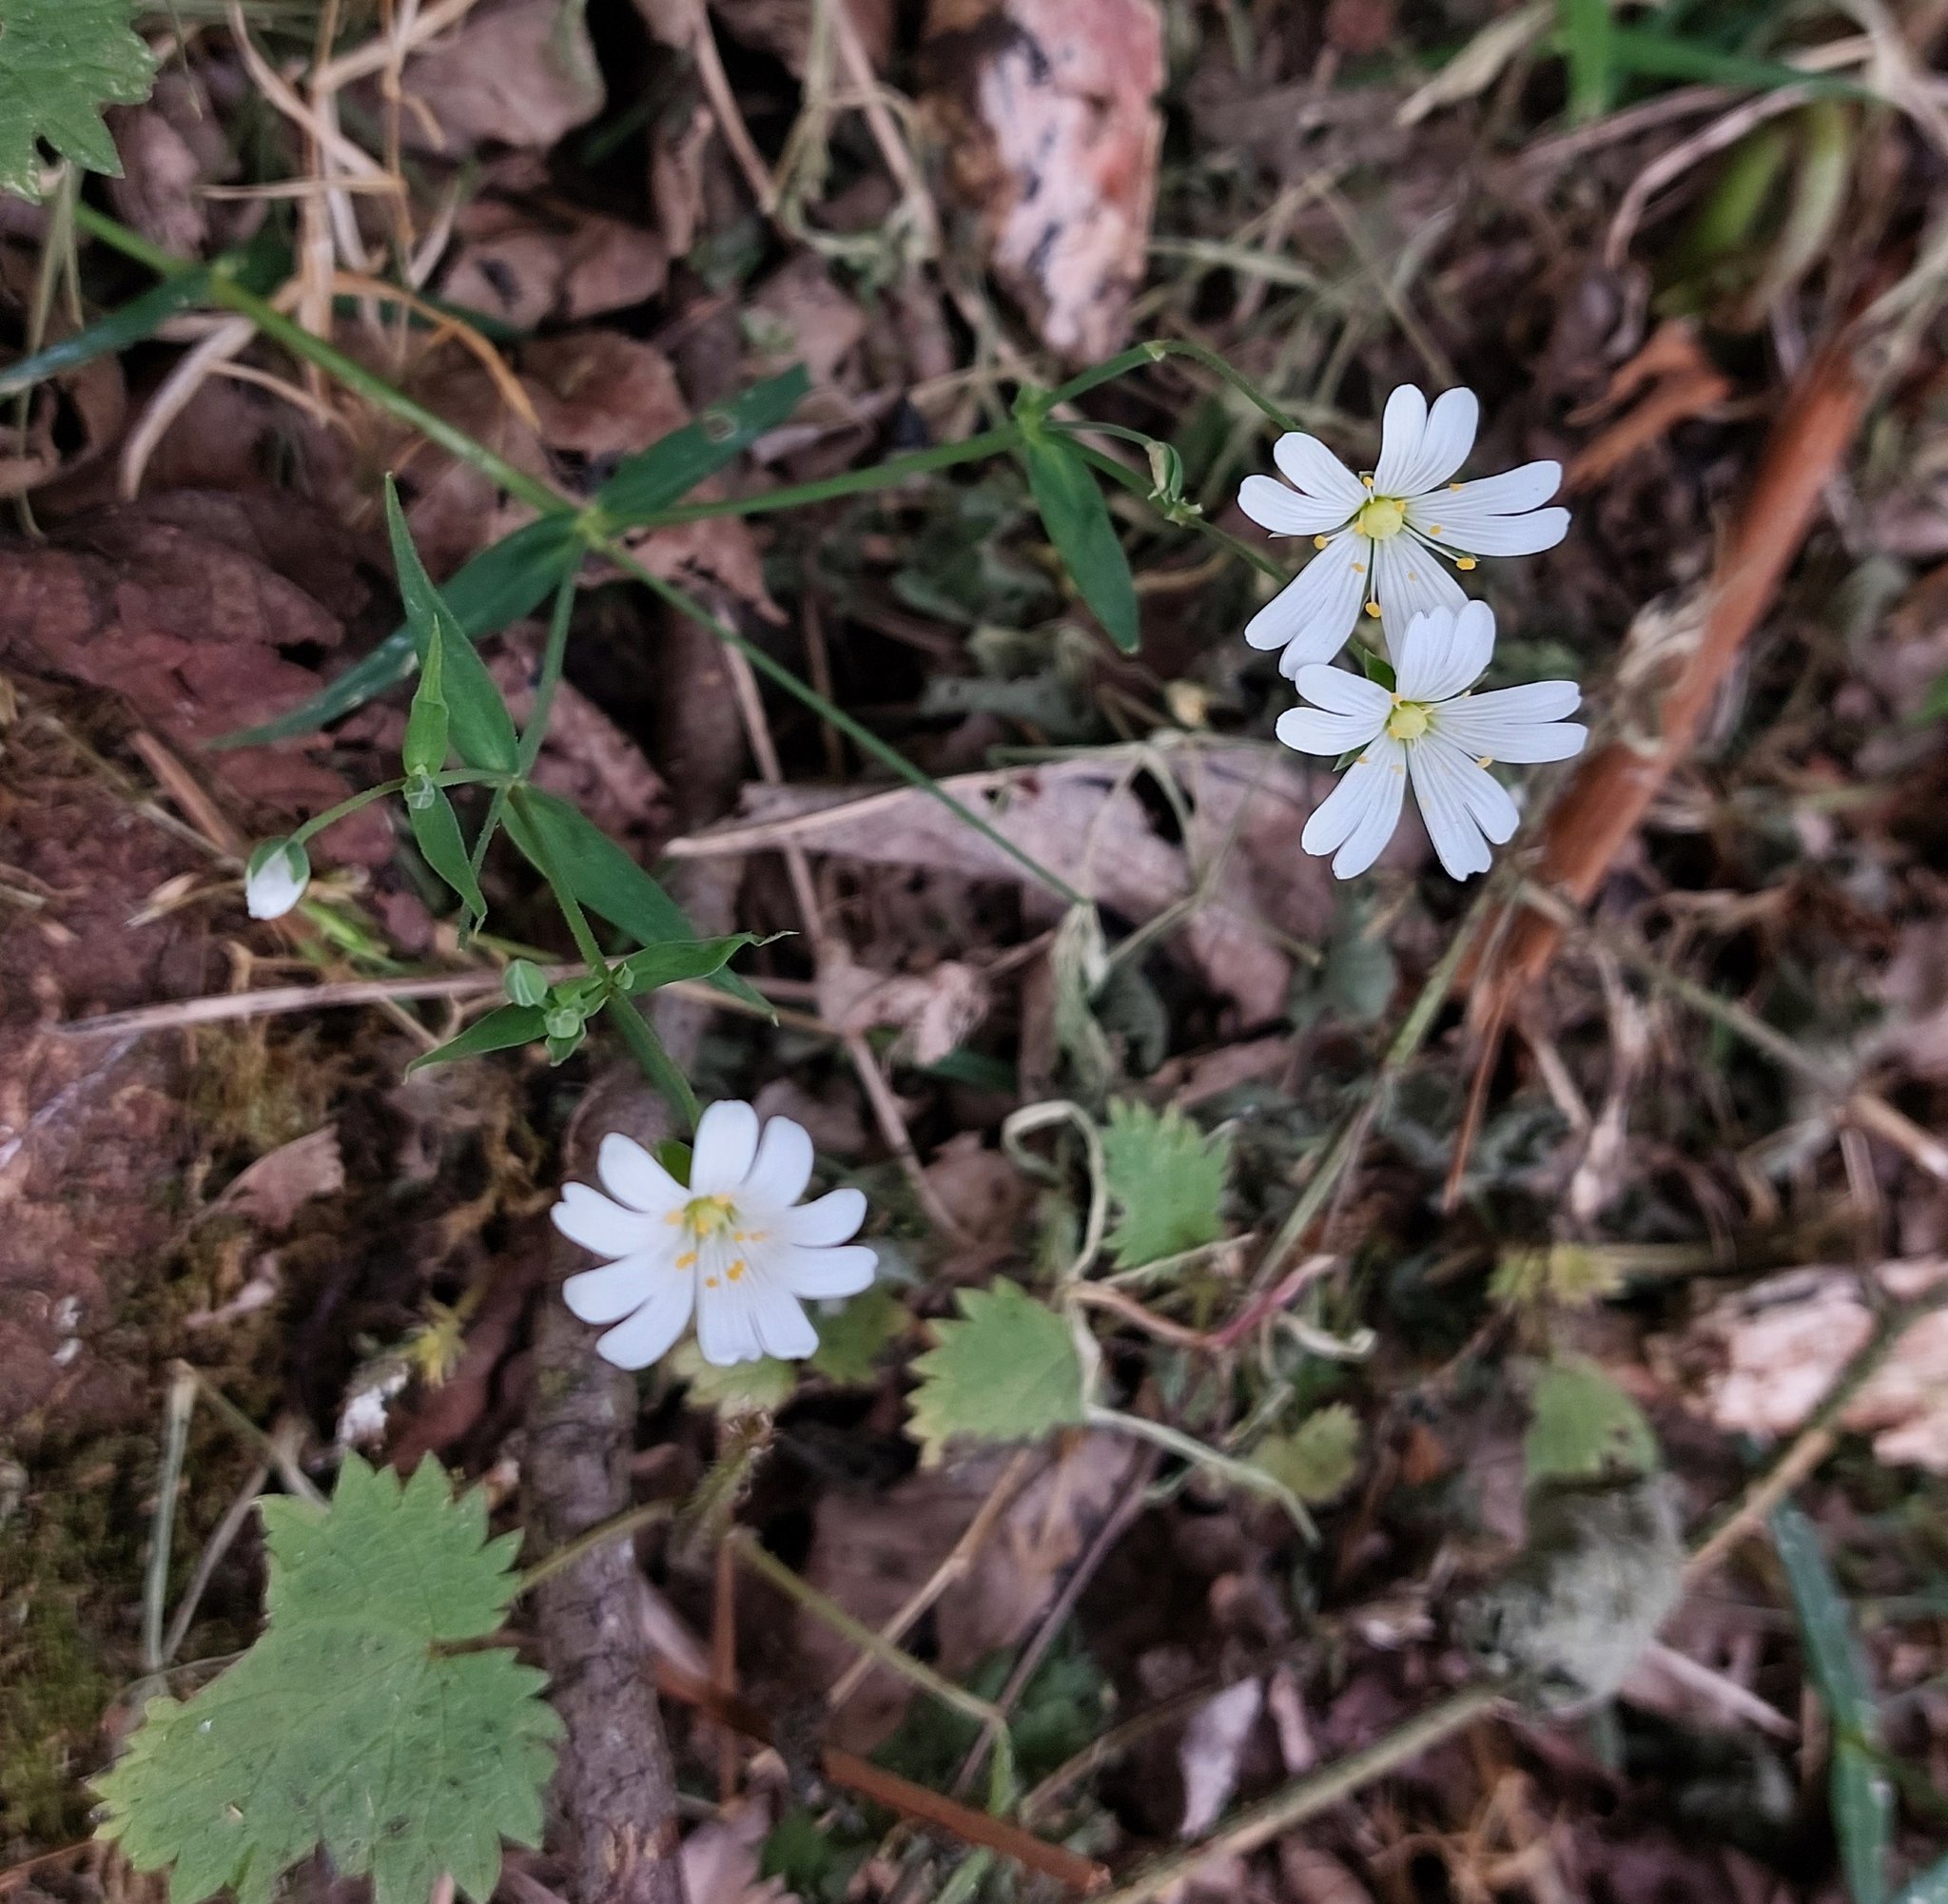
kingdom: Plantae
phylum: Tracheophyta
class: Magnoliopsida
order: Caryophyllales
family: Caryophyllaceae
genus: Rabelera
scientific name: Rabelera holostea
